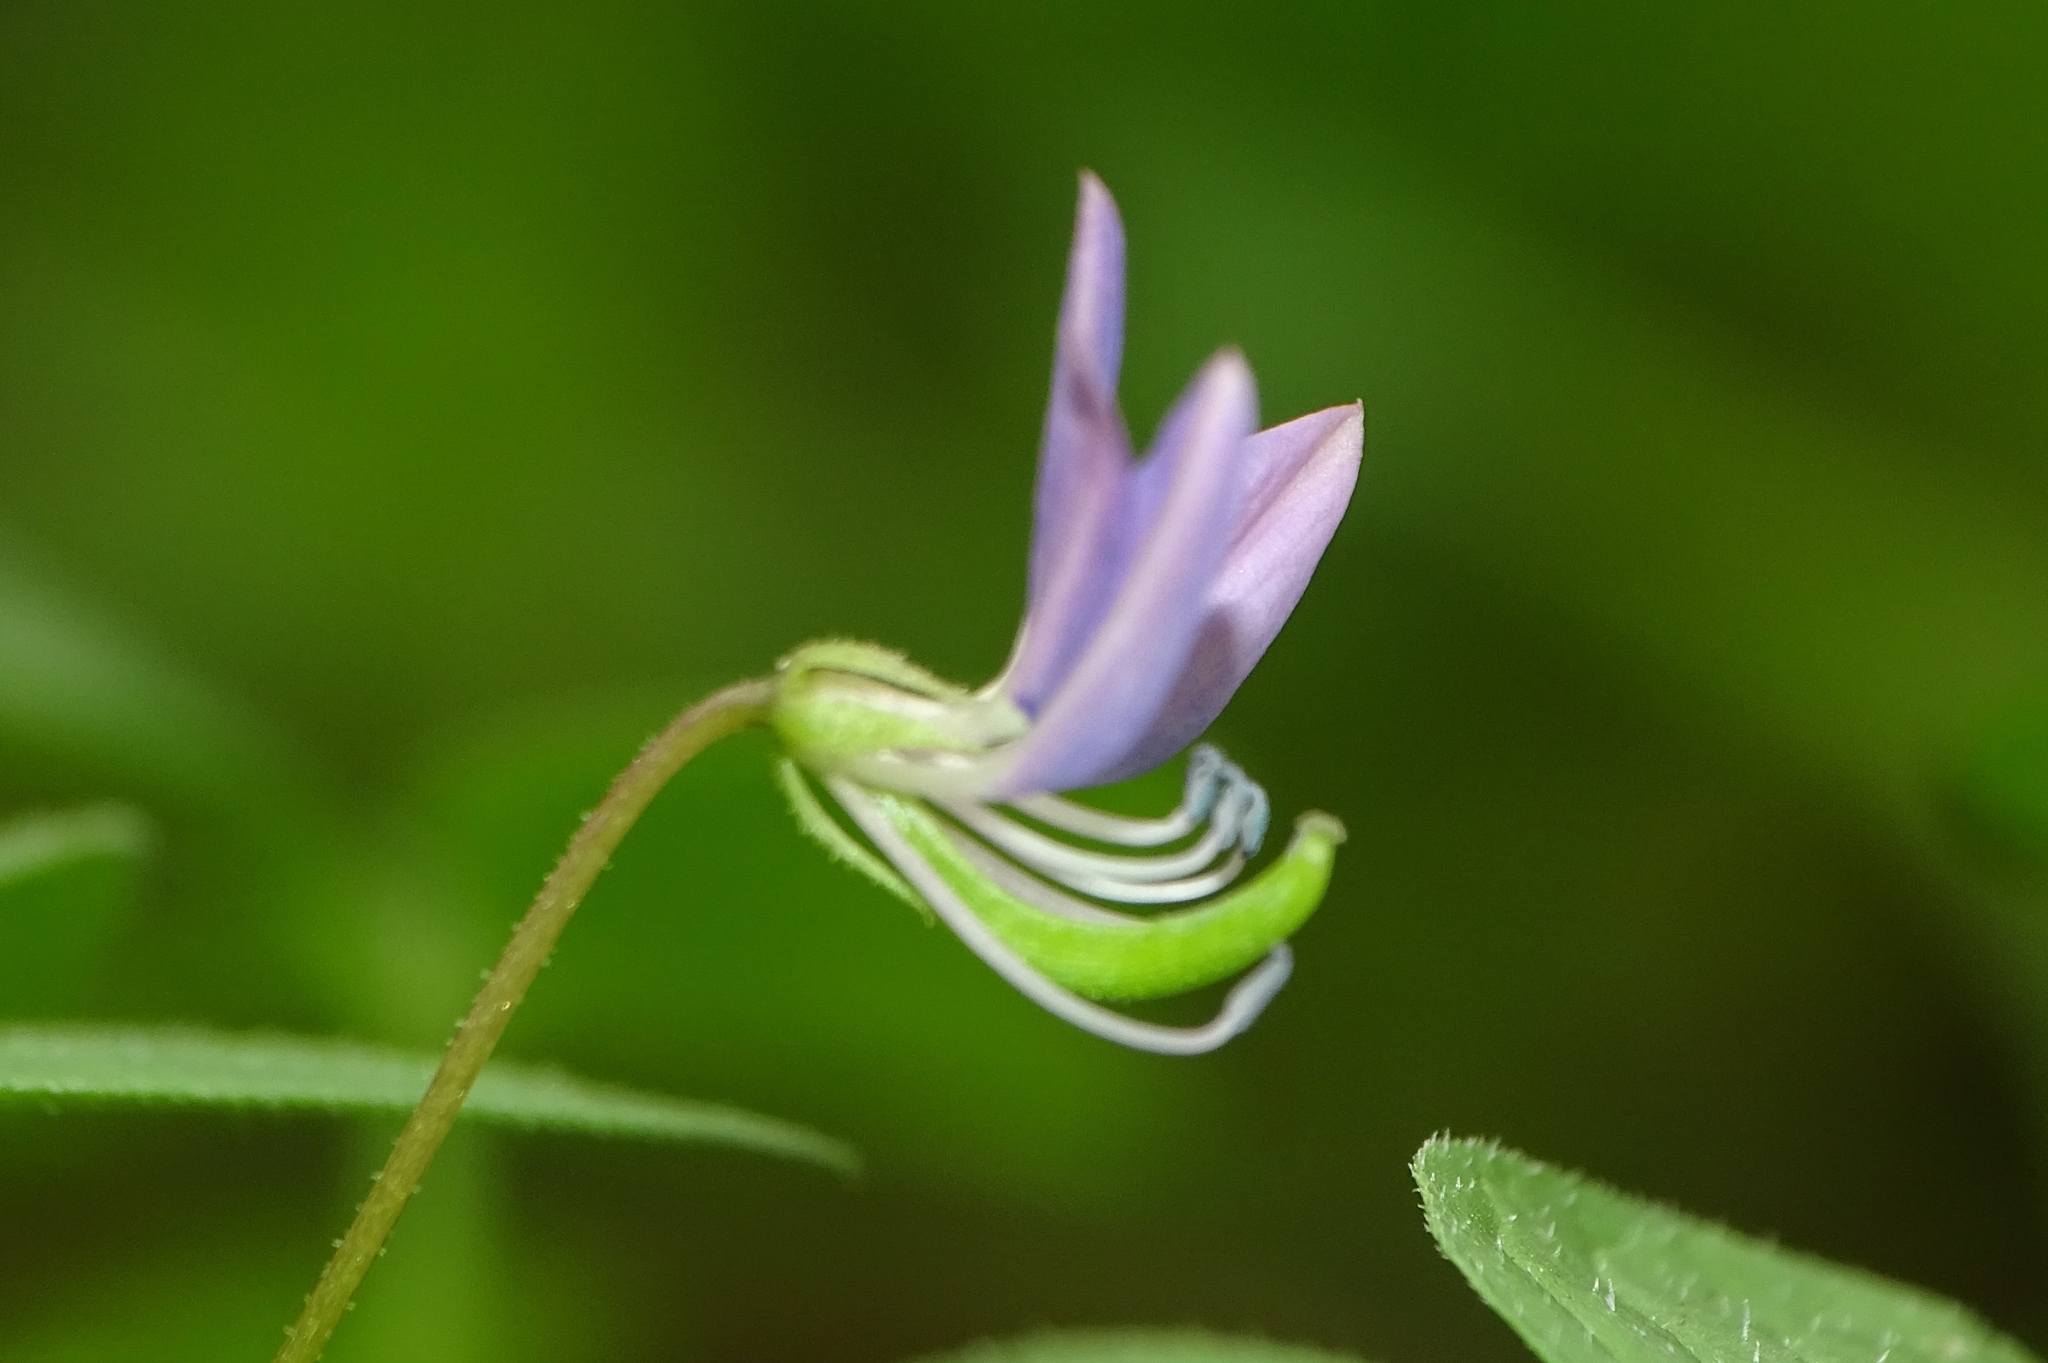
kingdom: Plantae
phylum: Tracheophyta
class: Magnoliopsida
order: Brassicales
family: Cleomaceae
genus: Sieruela
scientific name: Sieruela rutidosperma
